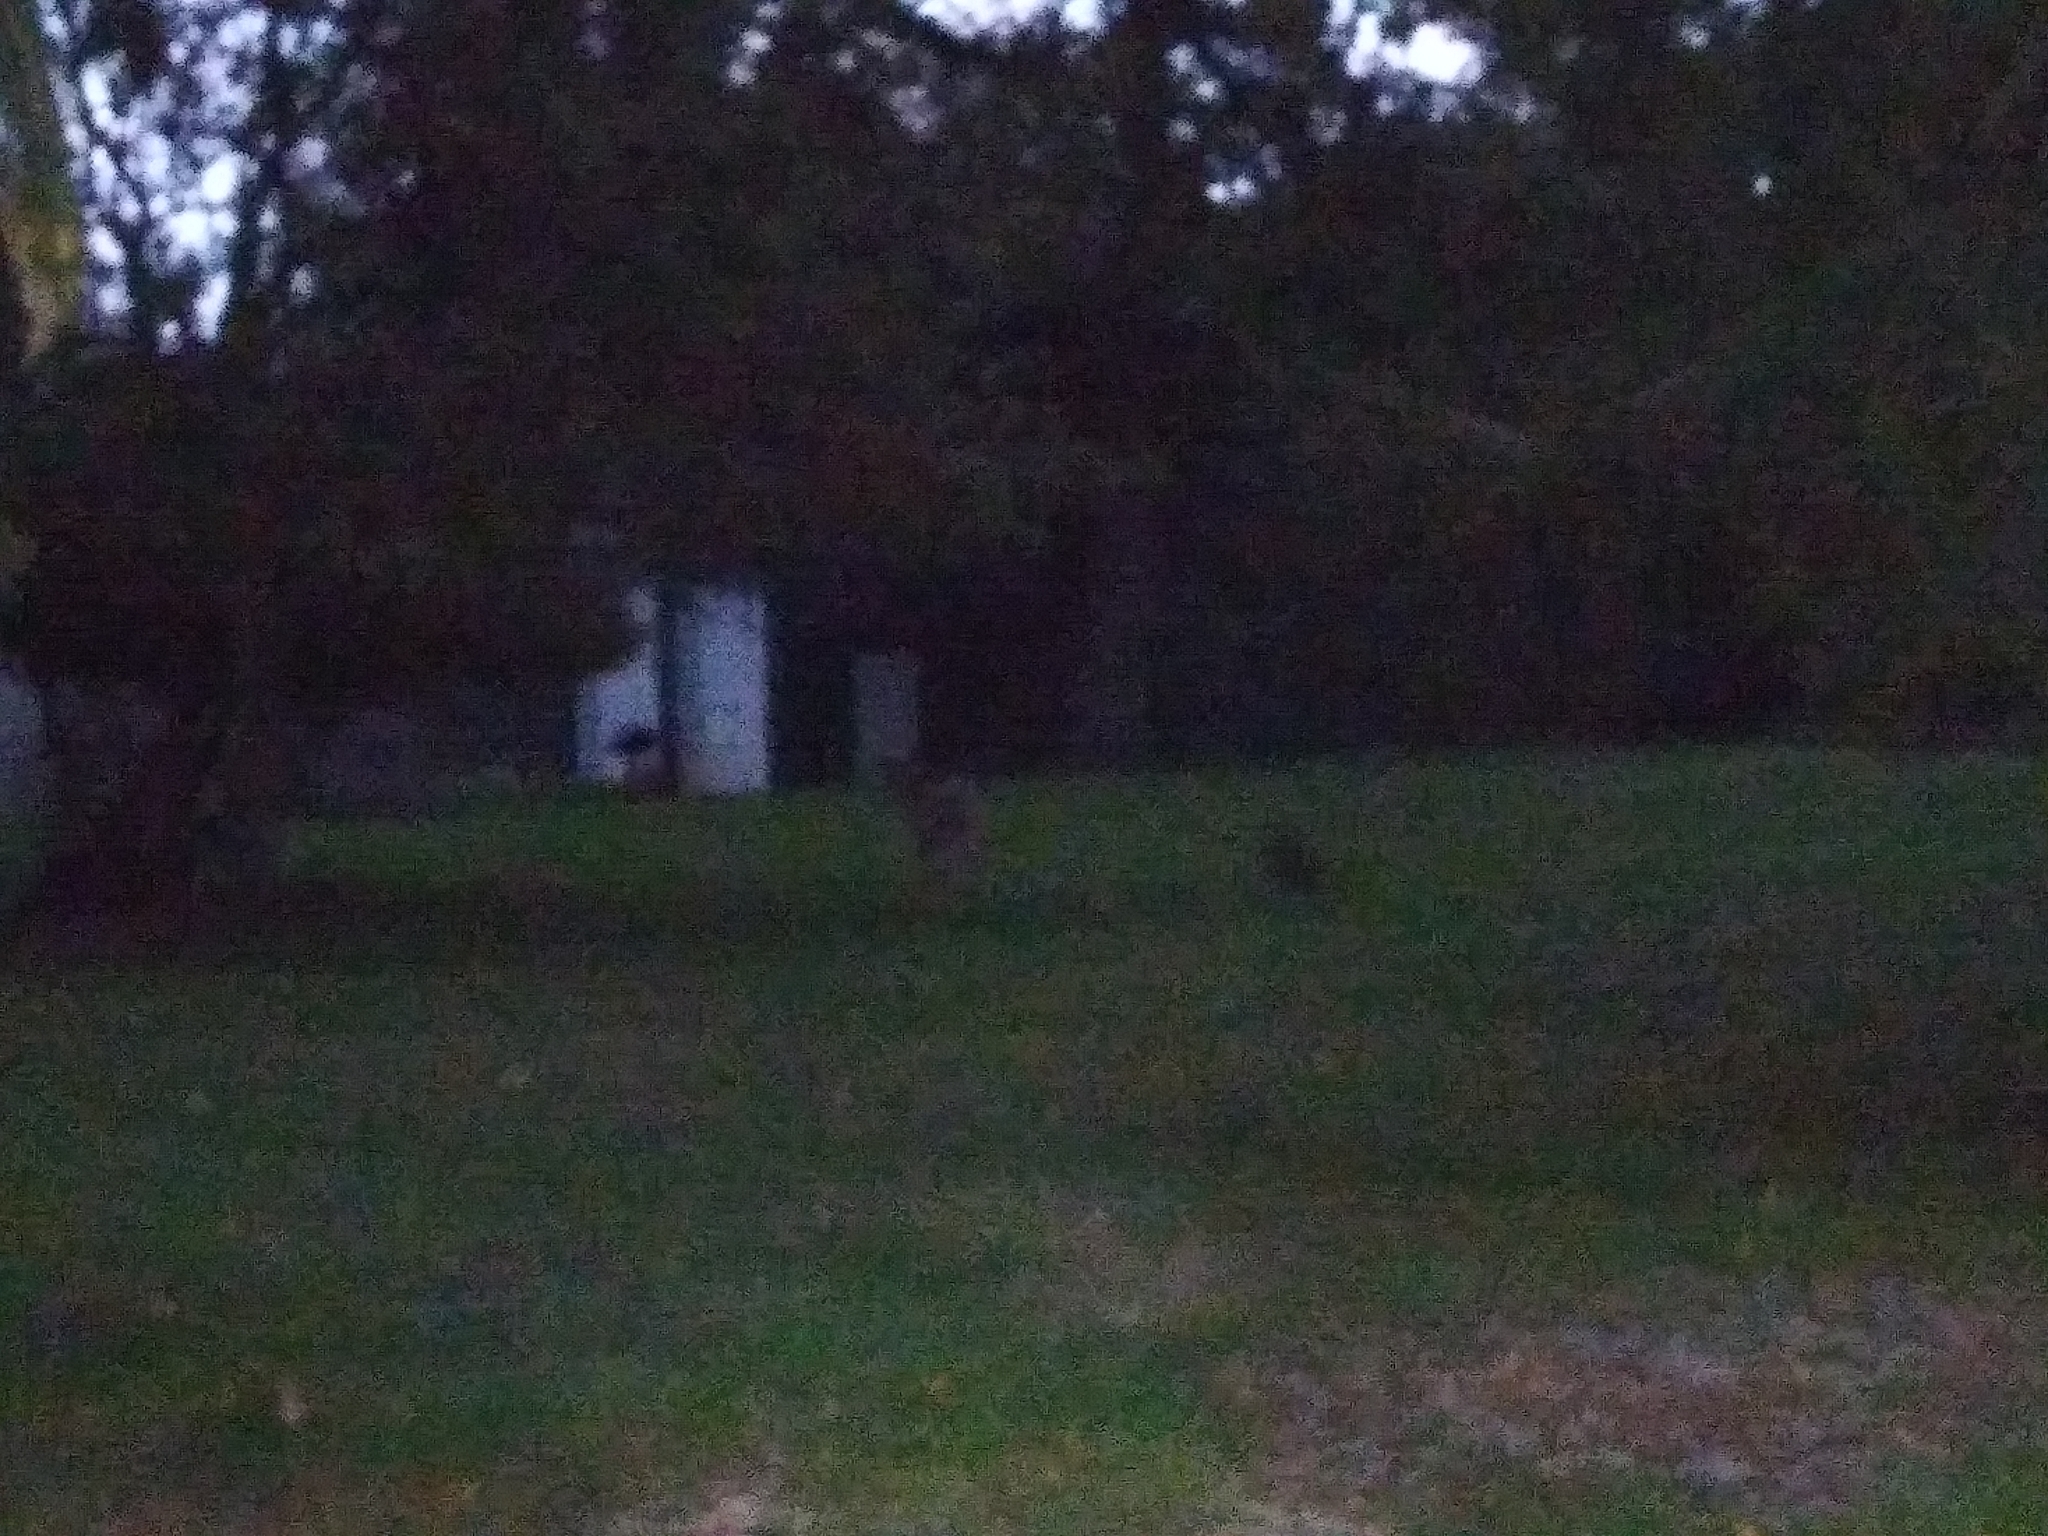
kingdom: Animalia
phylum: Chordata
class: Mammalia
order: Artiodactyla
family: Cervidae
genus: Odocoileus
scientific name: Odocoileus virginianus
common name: White-tailed deer
